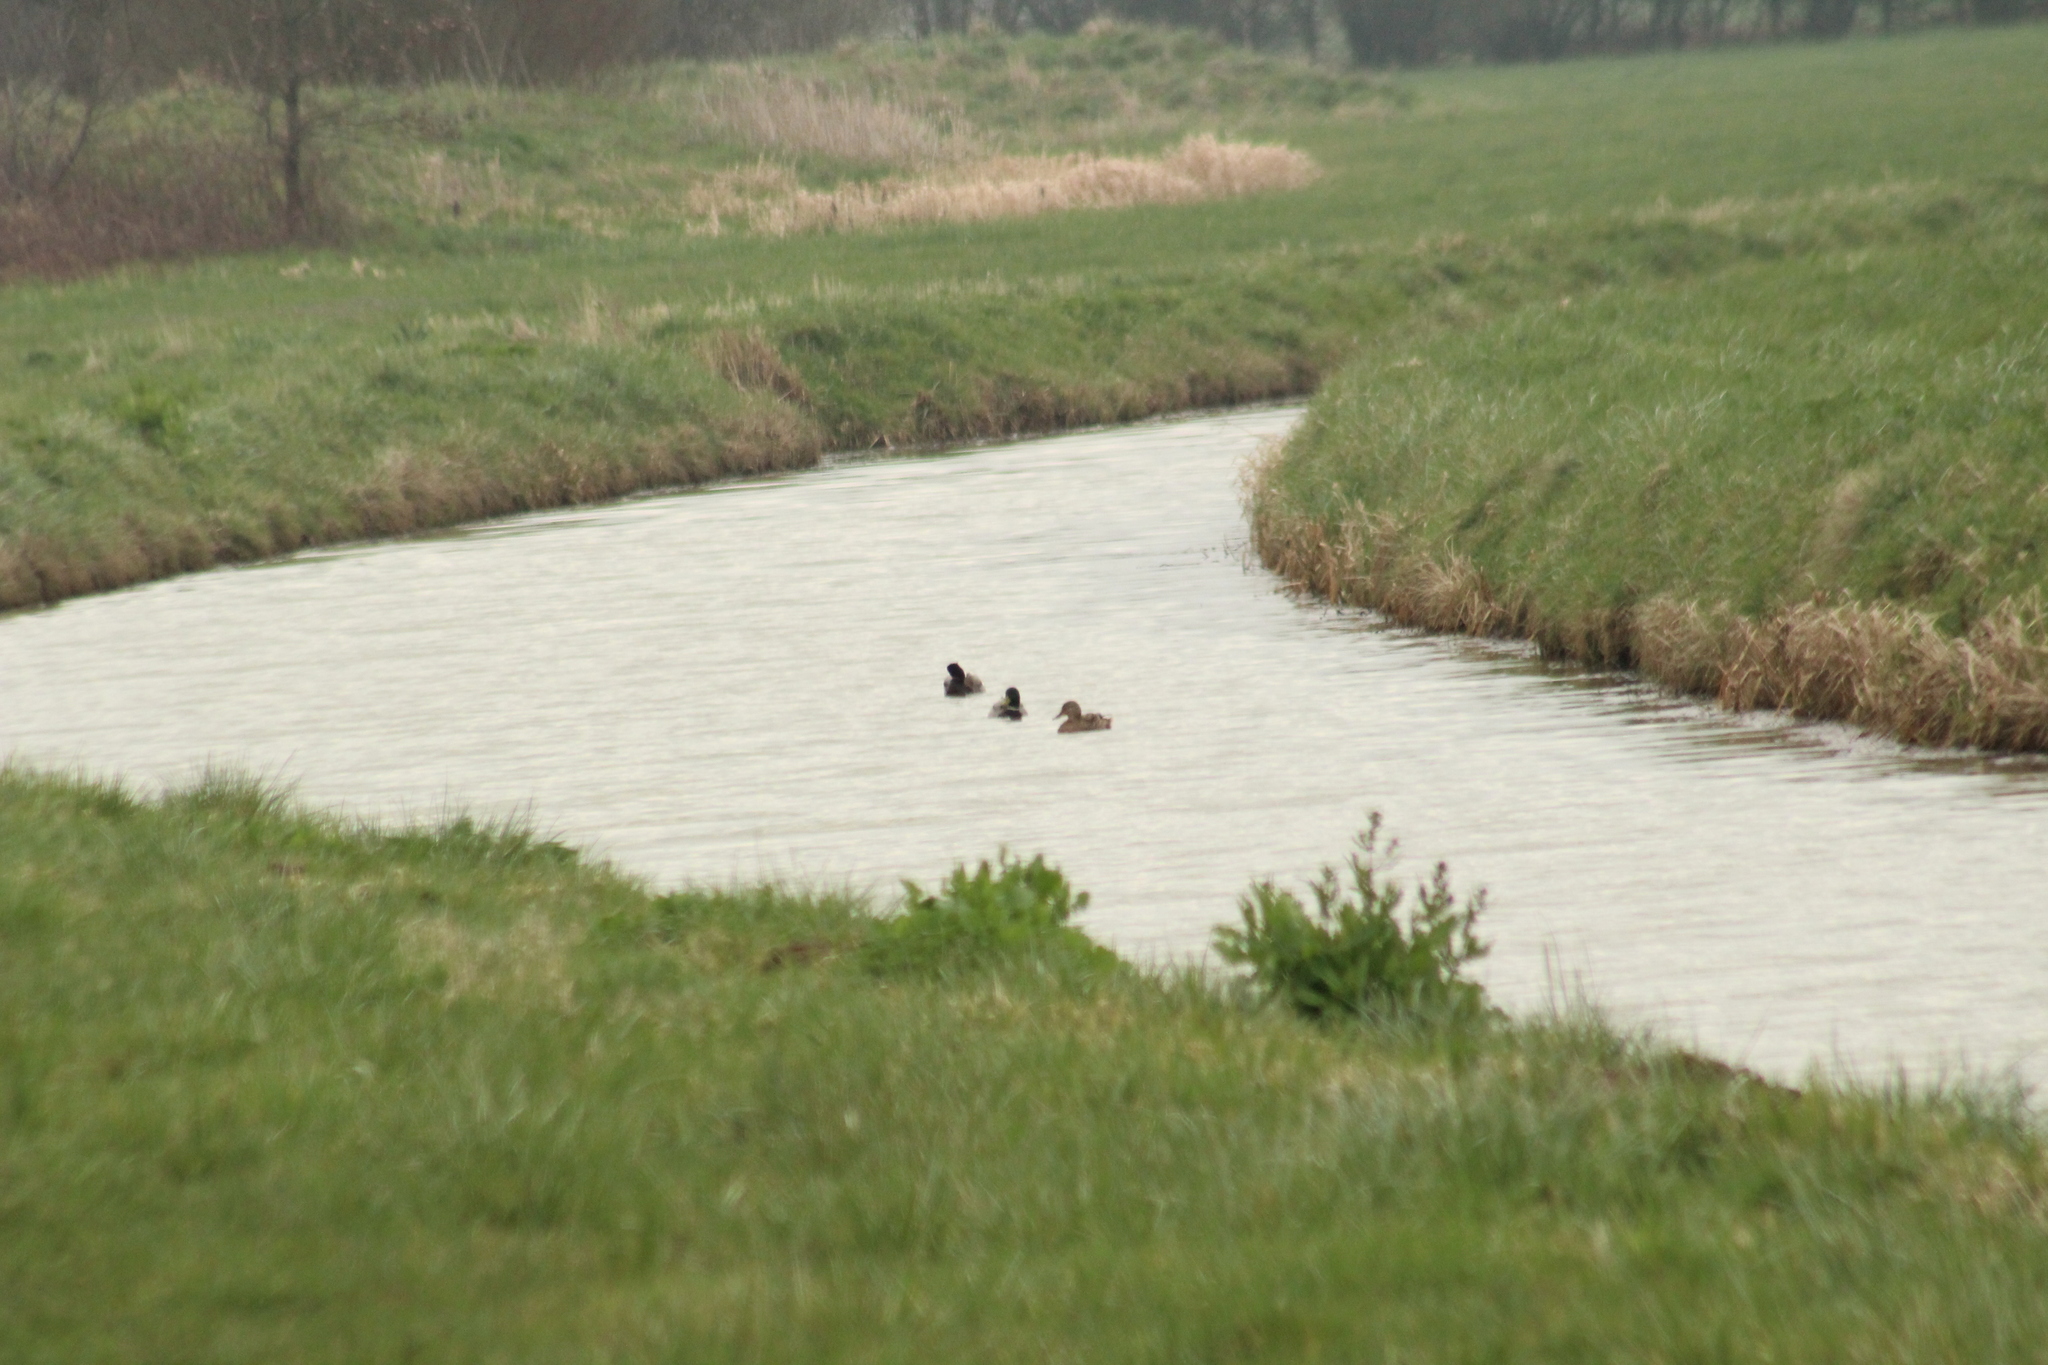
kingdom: Animalia
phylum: Chordata
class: Aves
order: Anseriformes
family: Anatidae
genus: Anas
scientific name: Anas platyrhynchos
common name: Mallard
